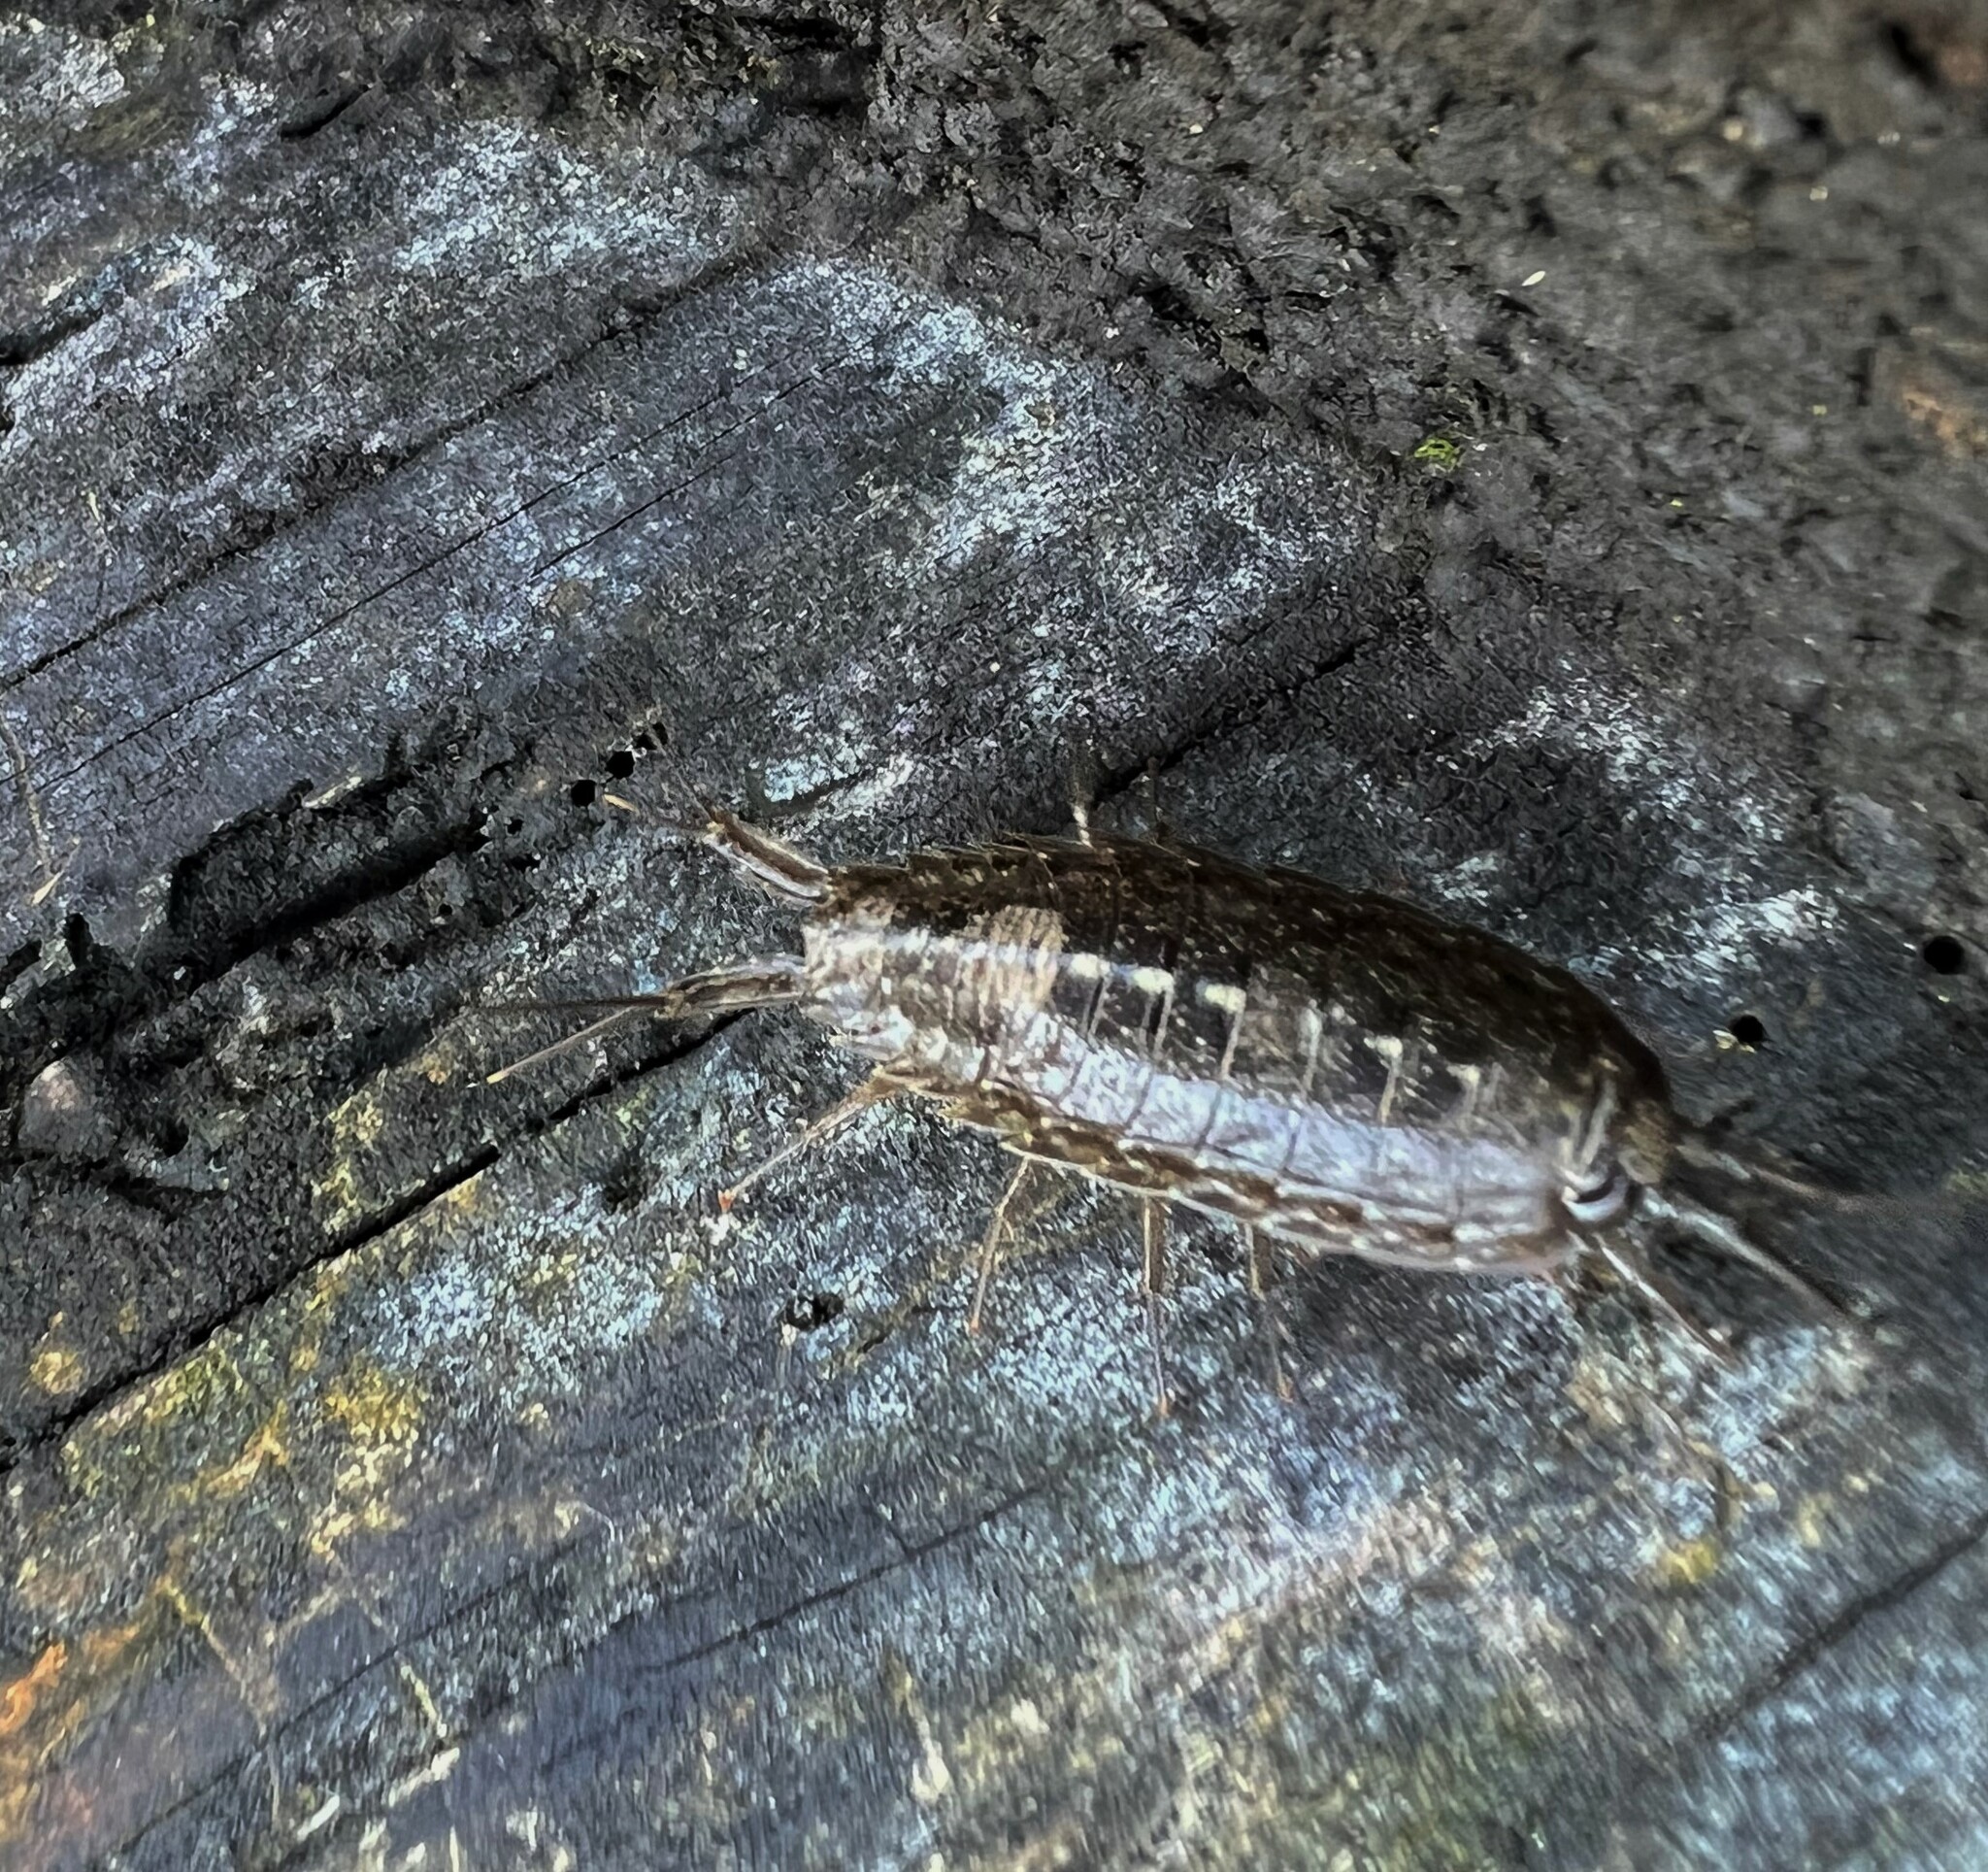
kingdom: Animalia
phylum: Arthropoda
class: Malacostraca
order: Isopoda
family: Ligiidae
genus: Ligia
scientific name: Ligia occidentalis
